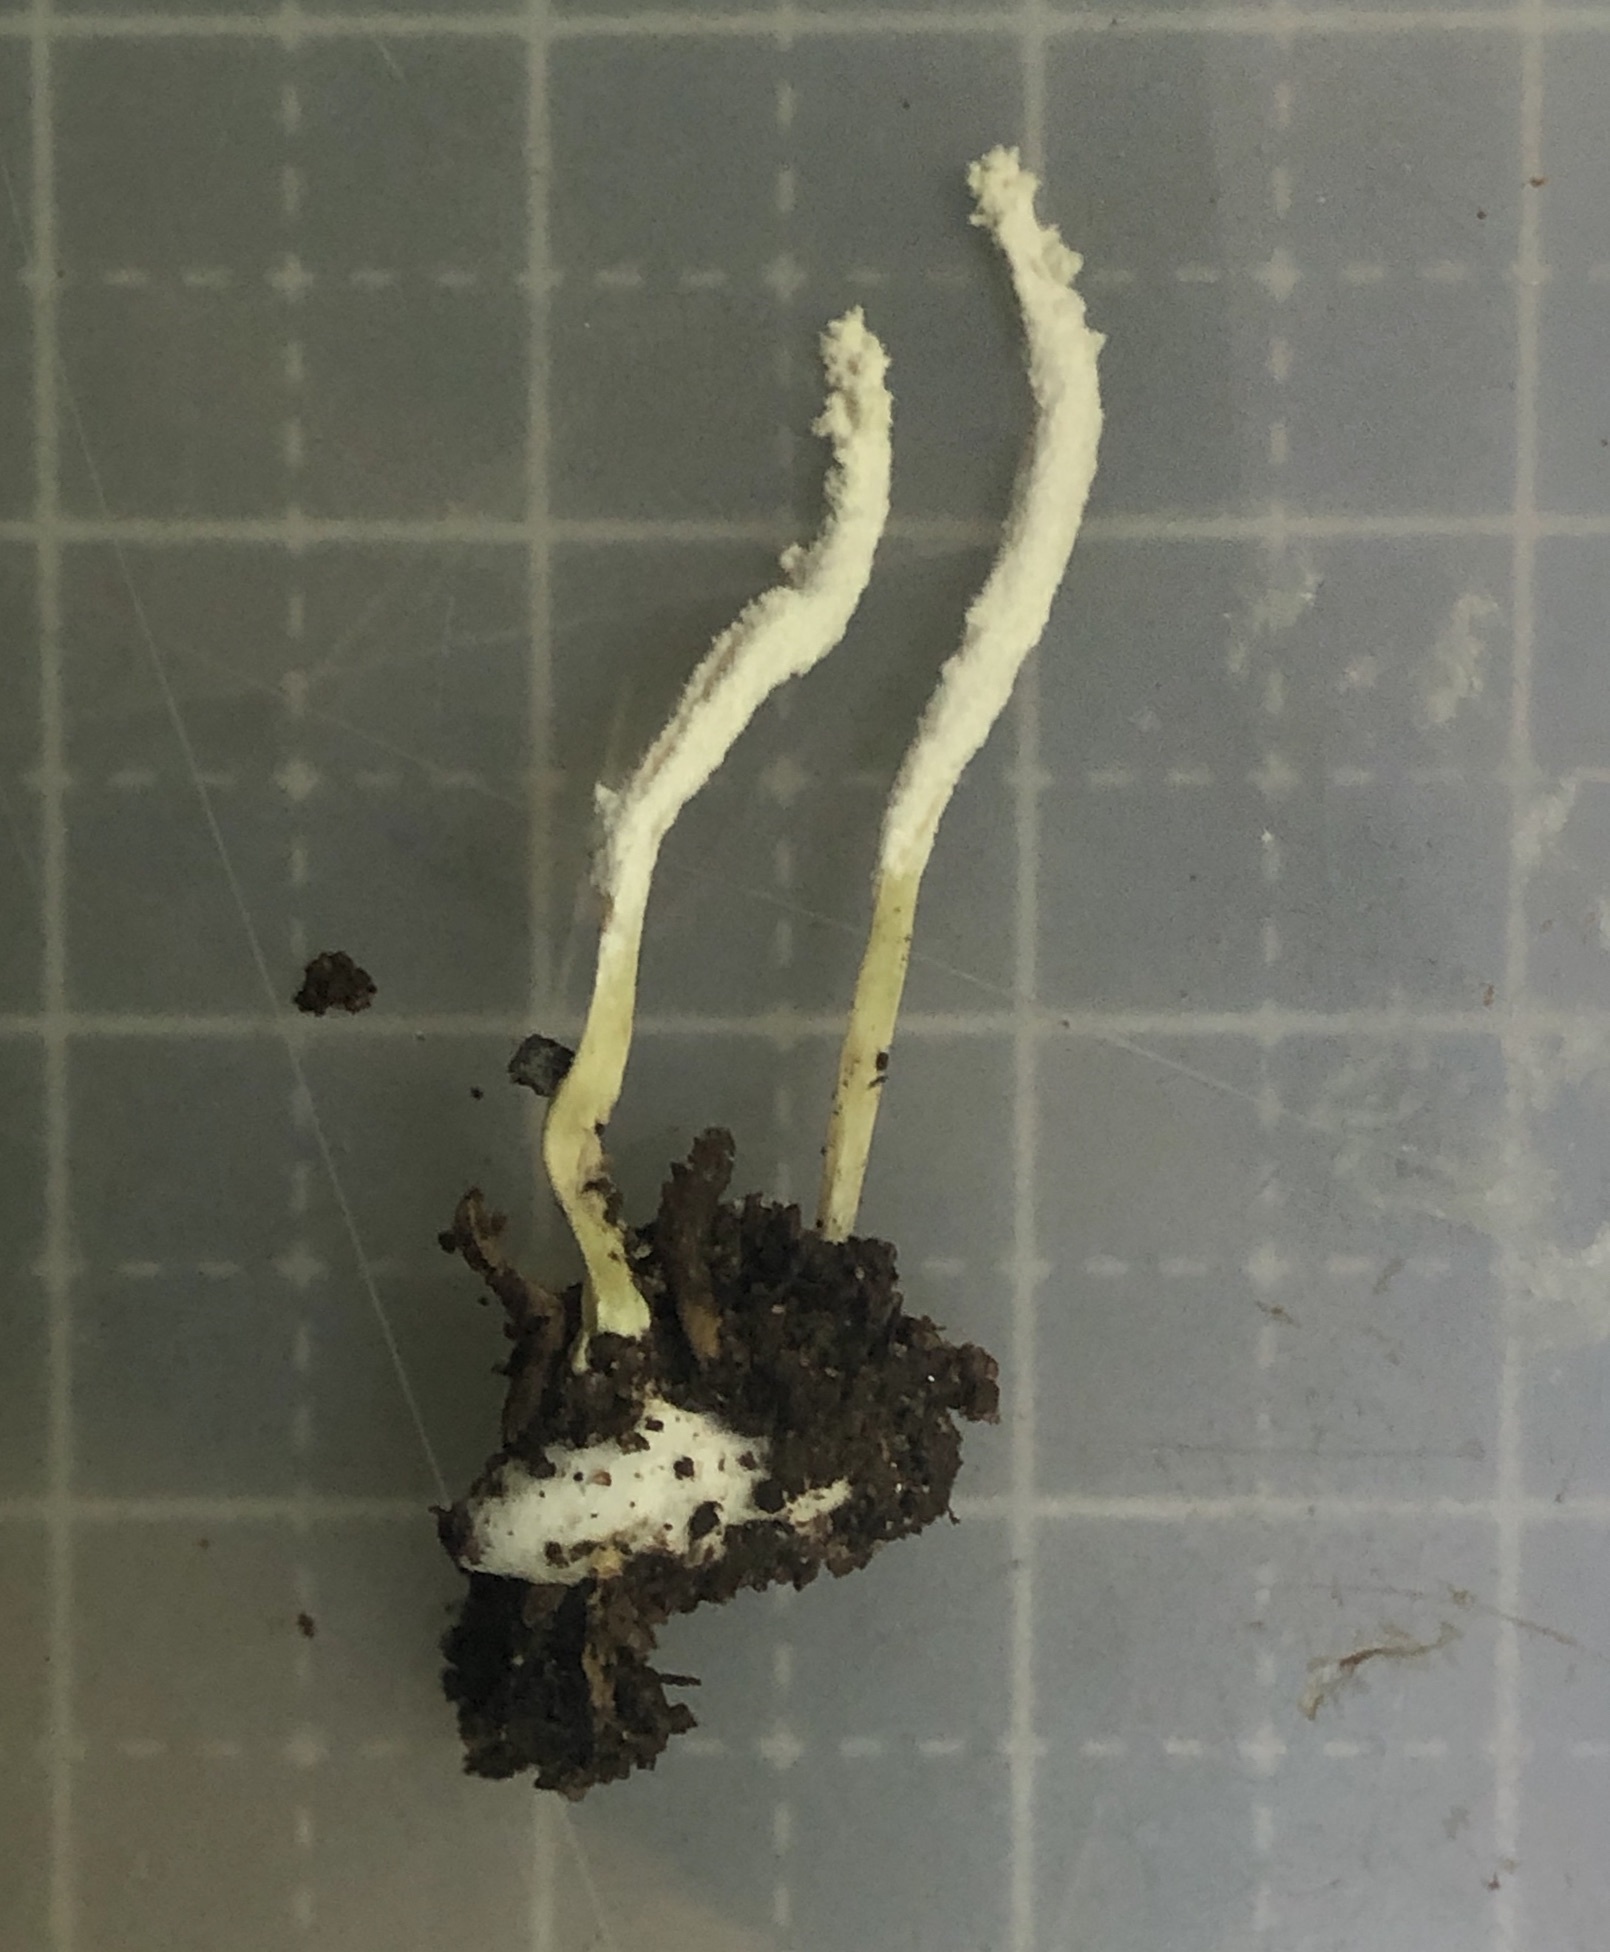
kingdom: Fungi
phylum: Ascomycota
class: Sordariomycetes
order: Hypocreales
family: Cordycipitaceae
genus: Cordyceps
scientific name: Cordyceps tenuipes
